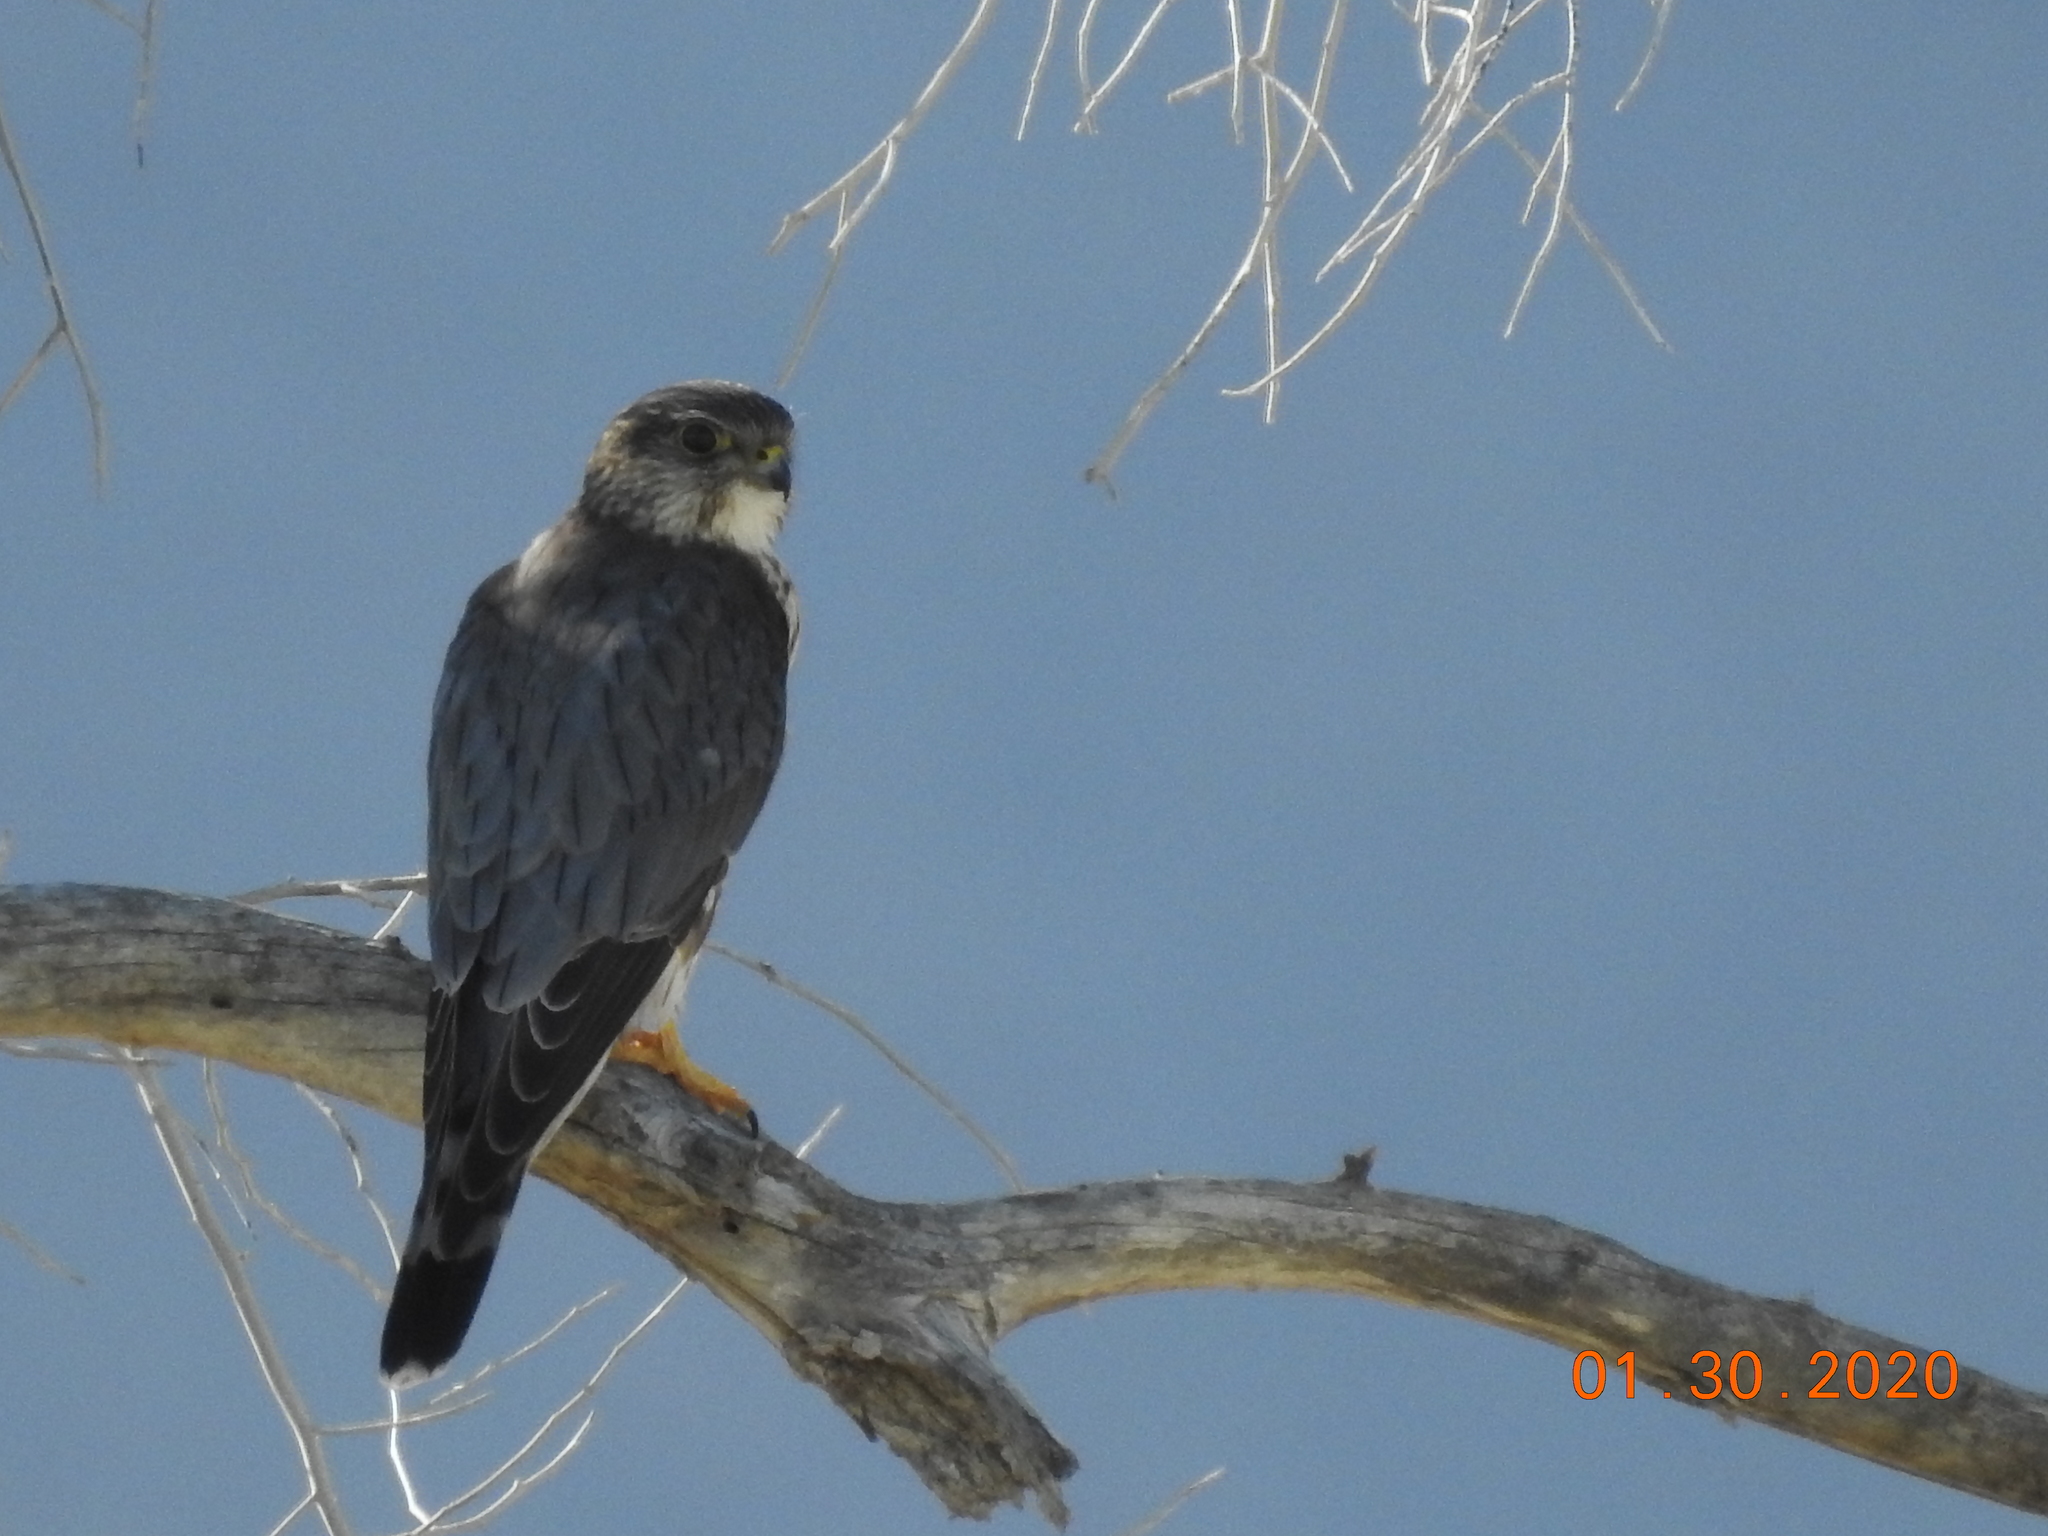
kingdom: Animalia
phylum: Chordata
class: Aves
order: Falconiformes
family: Falconidae
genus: Falco
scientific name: Falco columbarius
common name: Merlin
